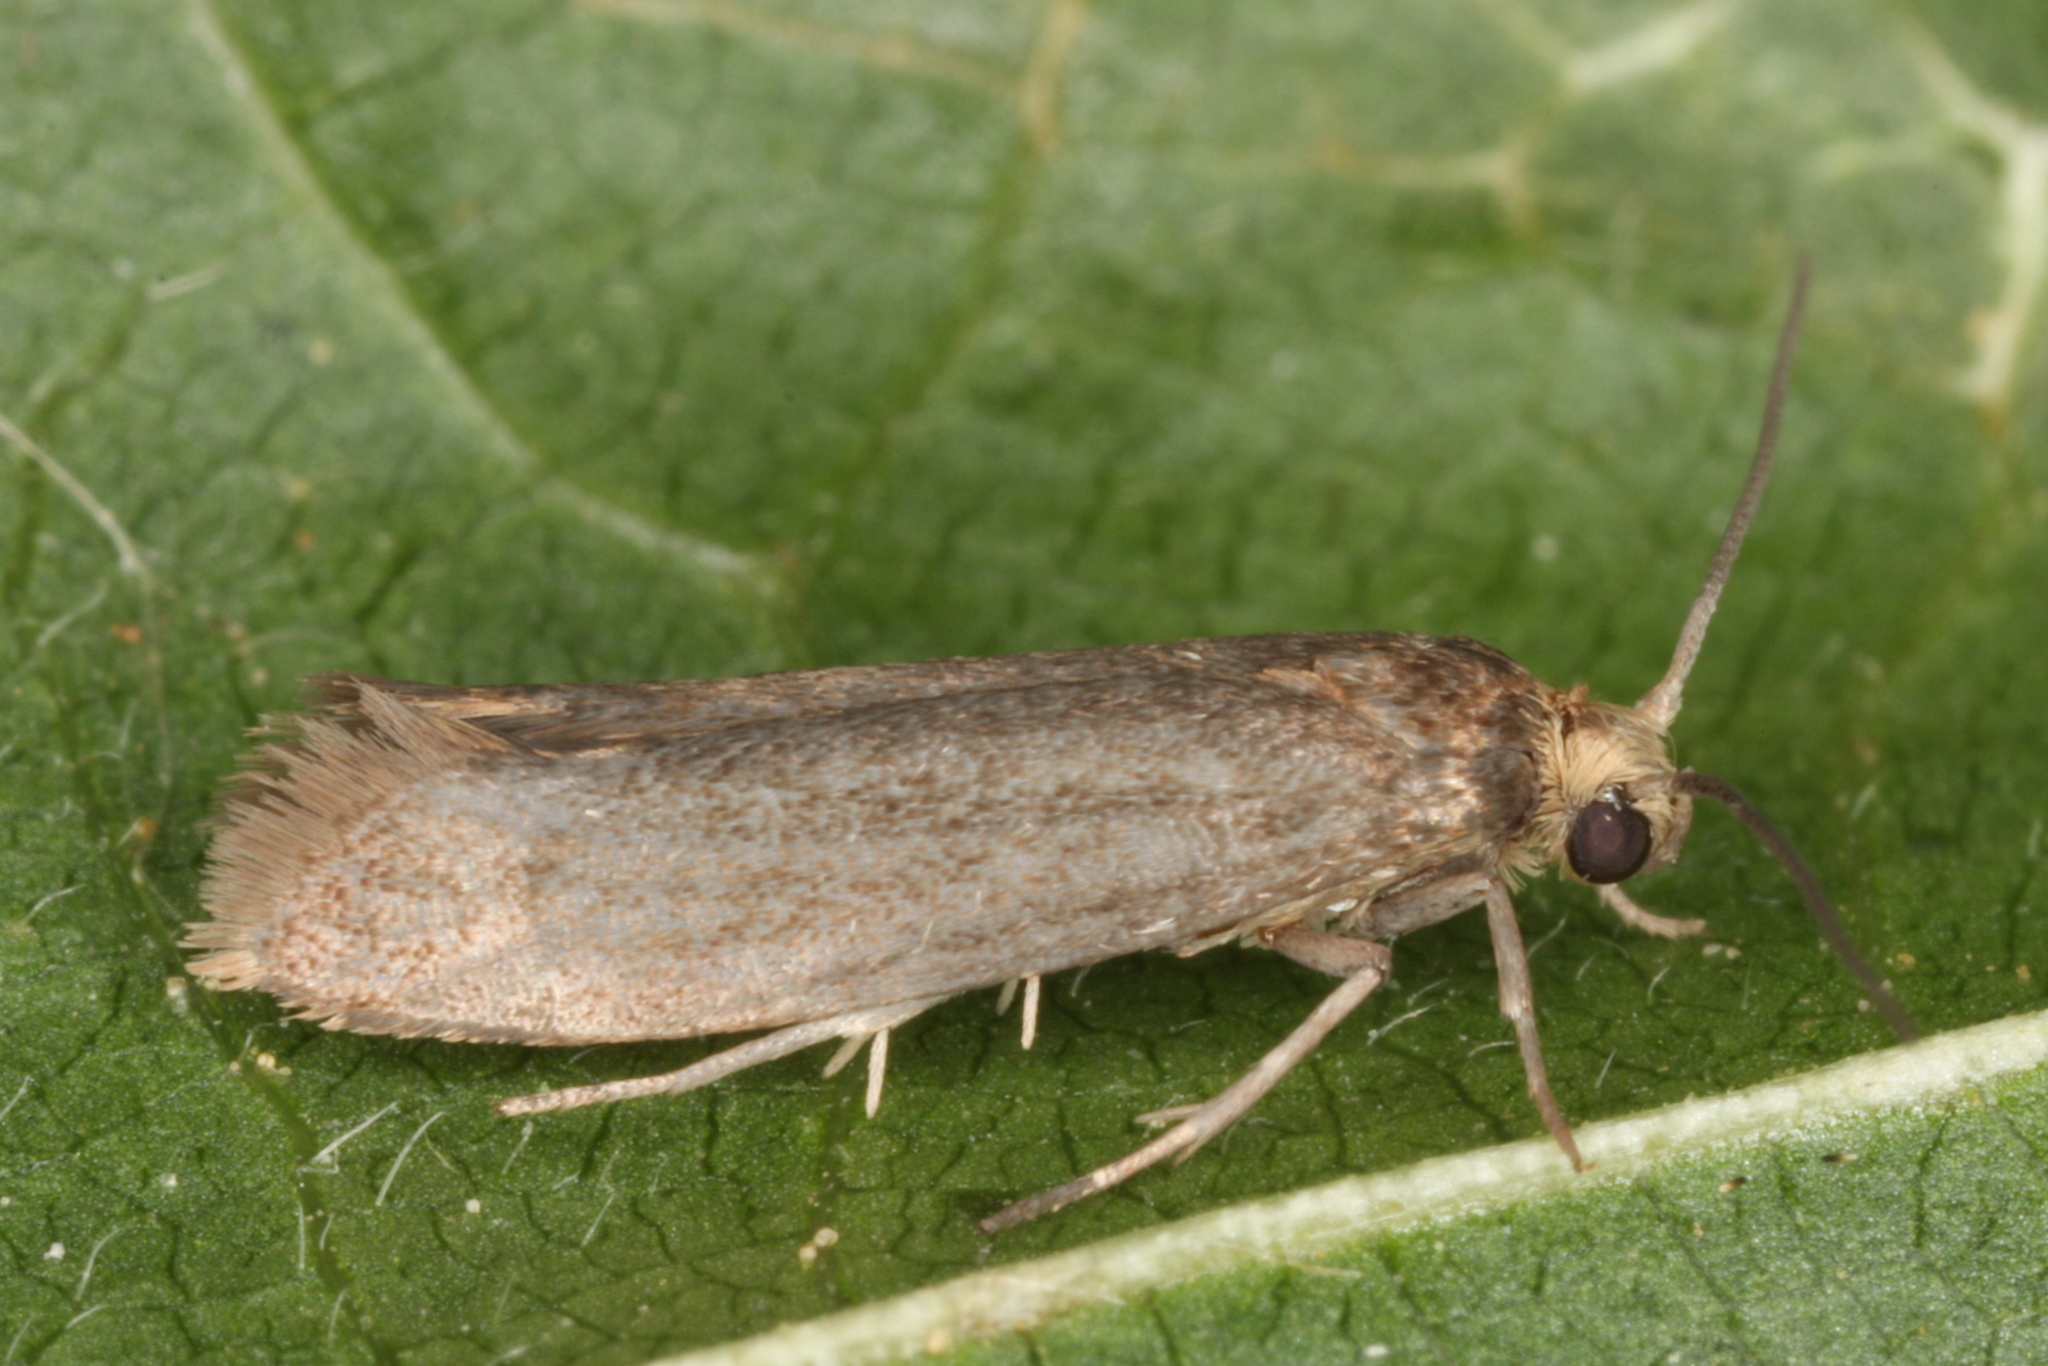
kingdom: Animalia
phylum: Arthropoda
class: Insecta
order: Lepidoptera
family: Praydidae
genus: Prays
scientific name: Prays curtisella
